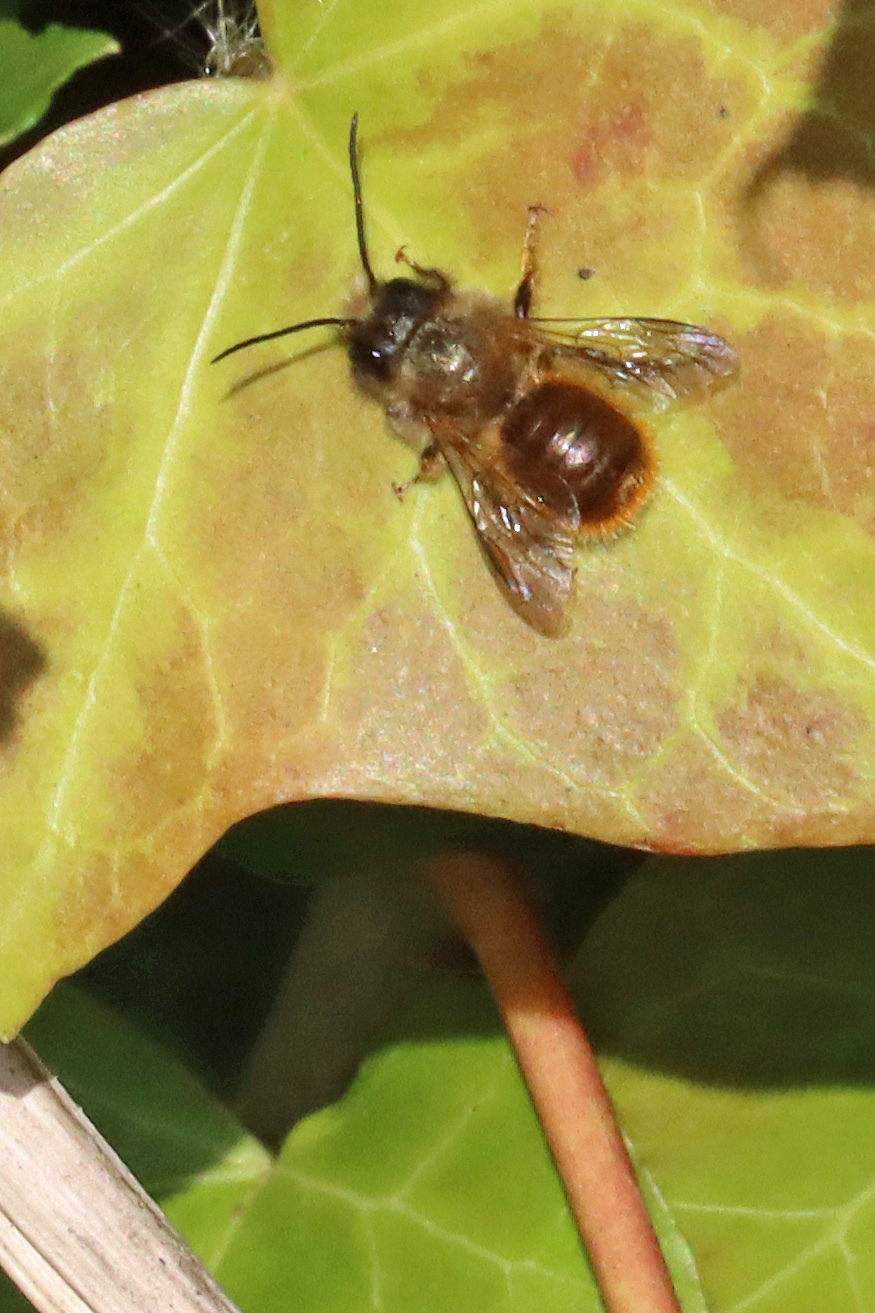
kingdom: Animalia
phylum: Arthropoda
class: Insecta
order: Hymenoptera
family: Megachilidae
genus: Osmia
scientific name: Osmia bicornis
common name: Red mason bee
